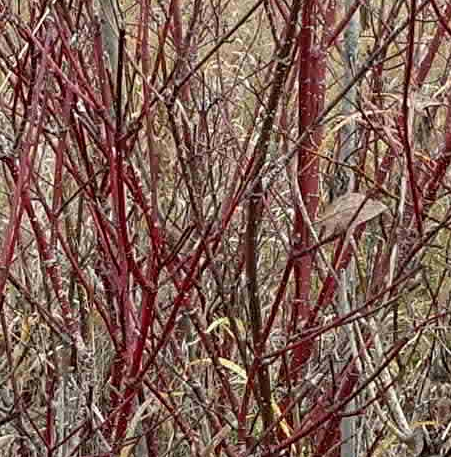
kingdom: Plantae
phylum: Tracheophyta
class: Magnoliopsida
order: Cornales
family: Cornaceae
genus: Cornus
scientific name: Cornus sericea
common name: Red-osier dogwood
